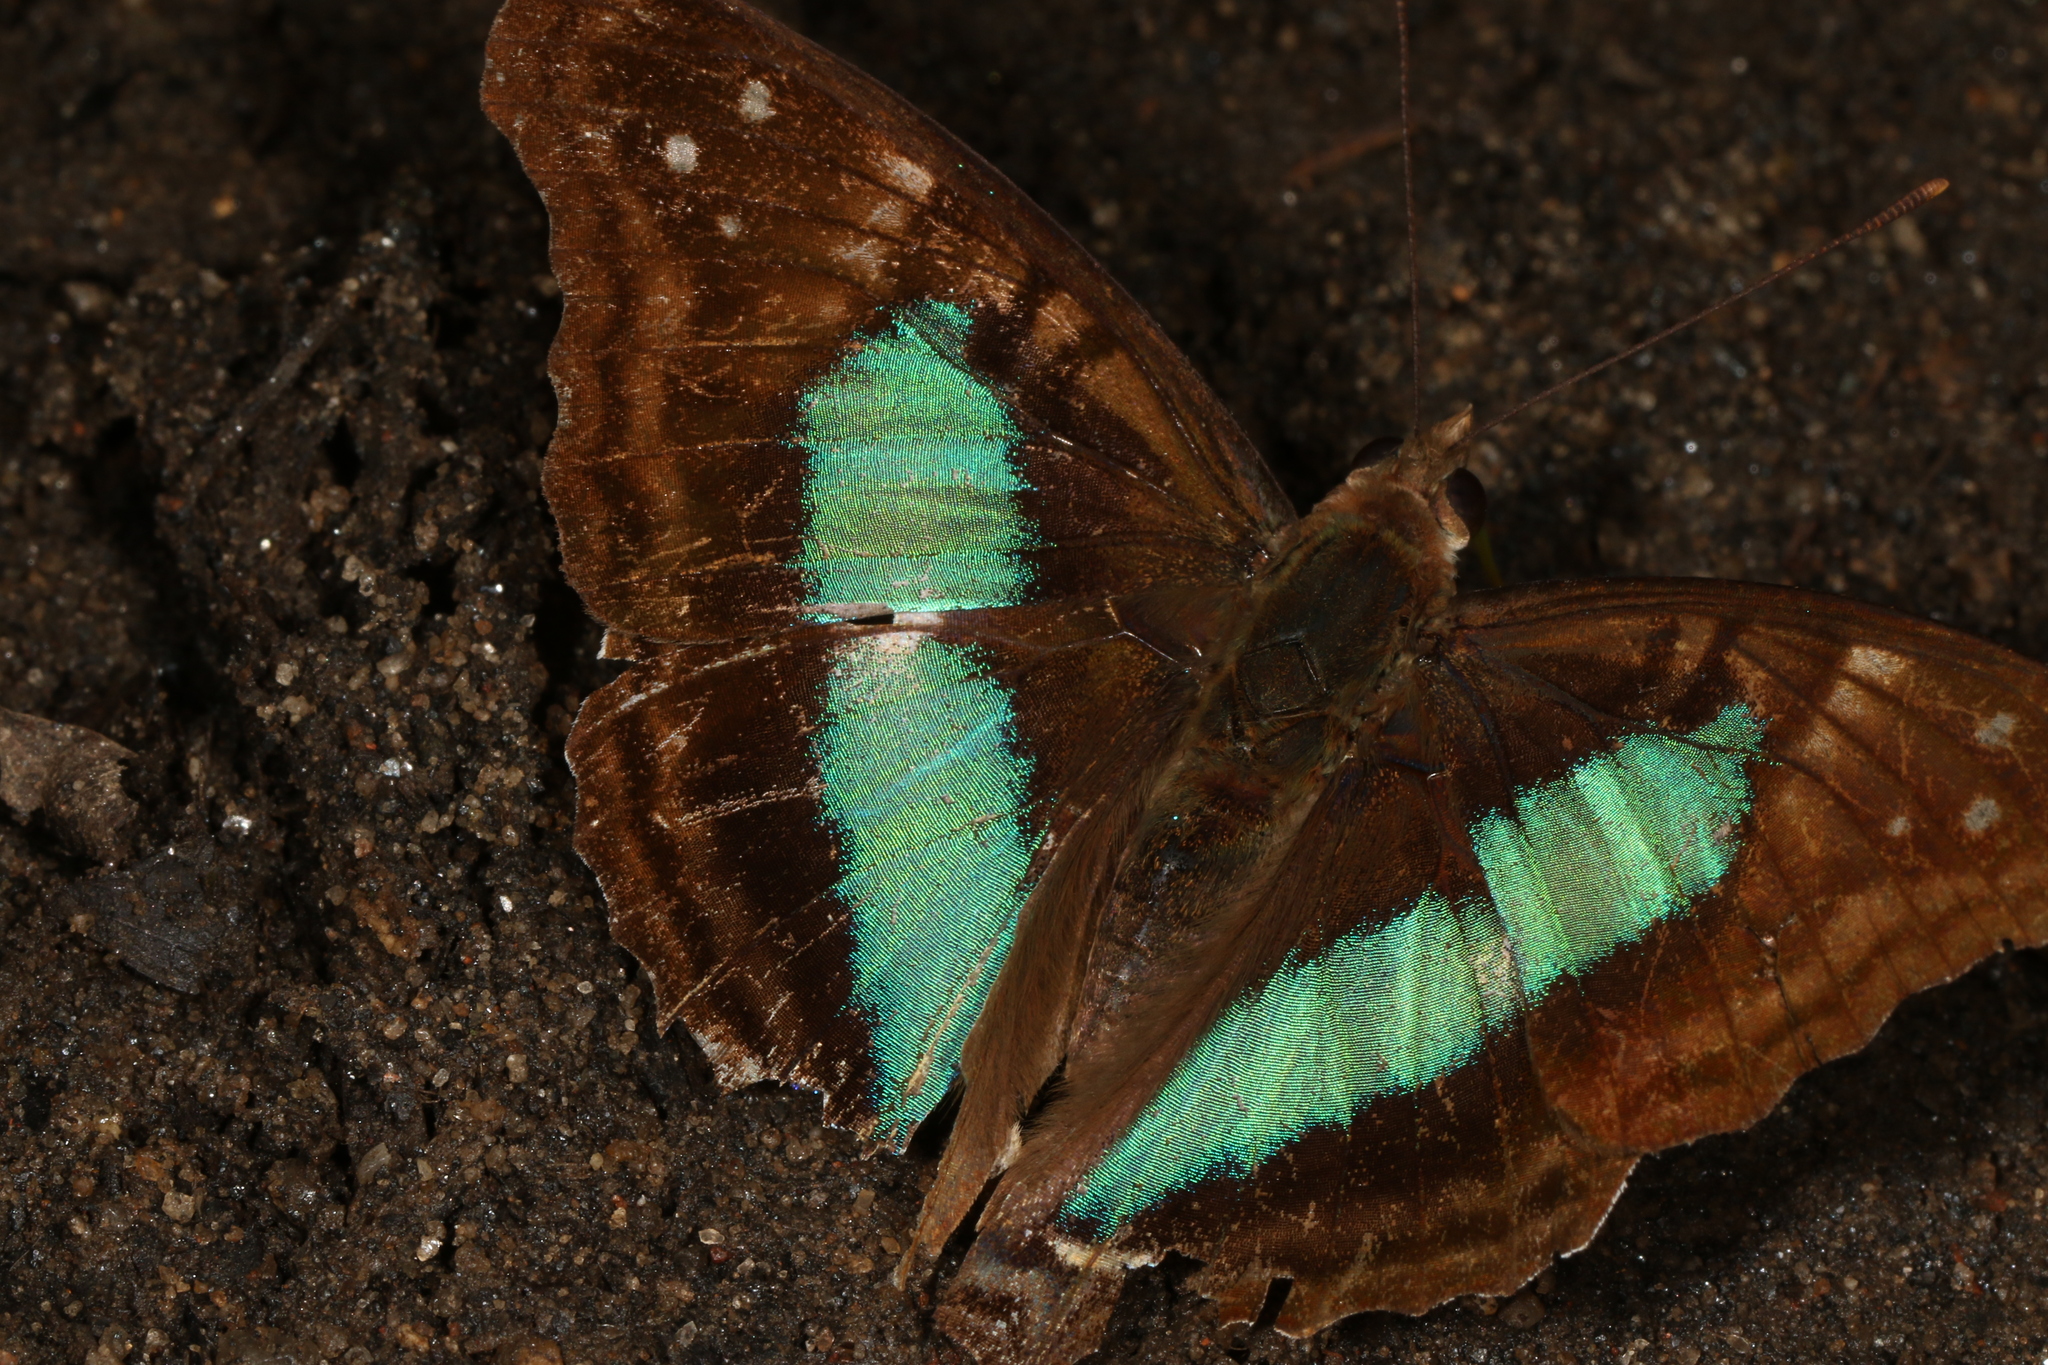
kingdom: Animalia
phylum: Arthropoda
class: Insecta
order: Lepidoptera
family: Nymphalidae
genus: Doxocopa
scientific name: Doxocopa laurentia
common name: Turquoise emperor
